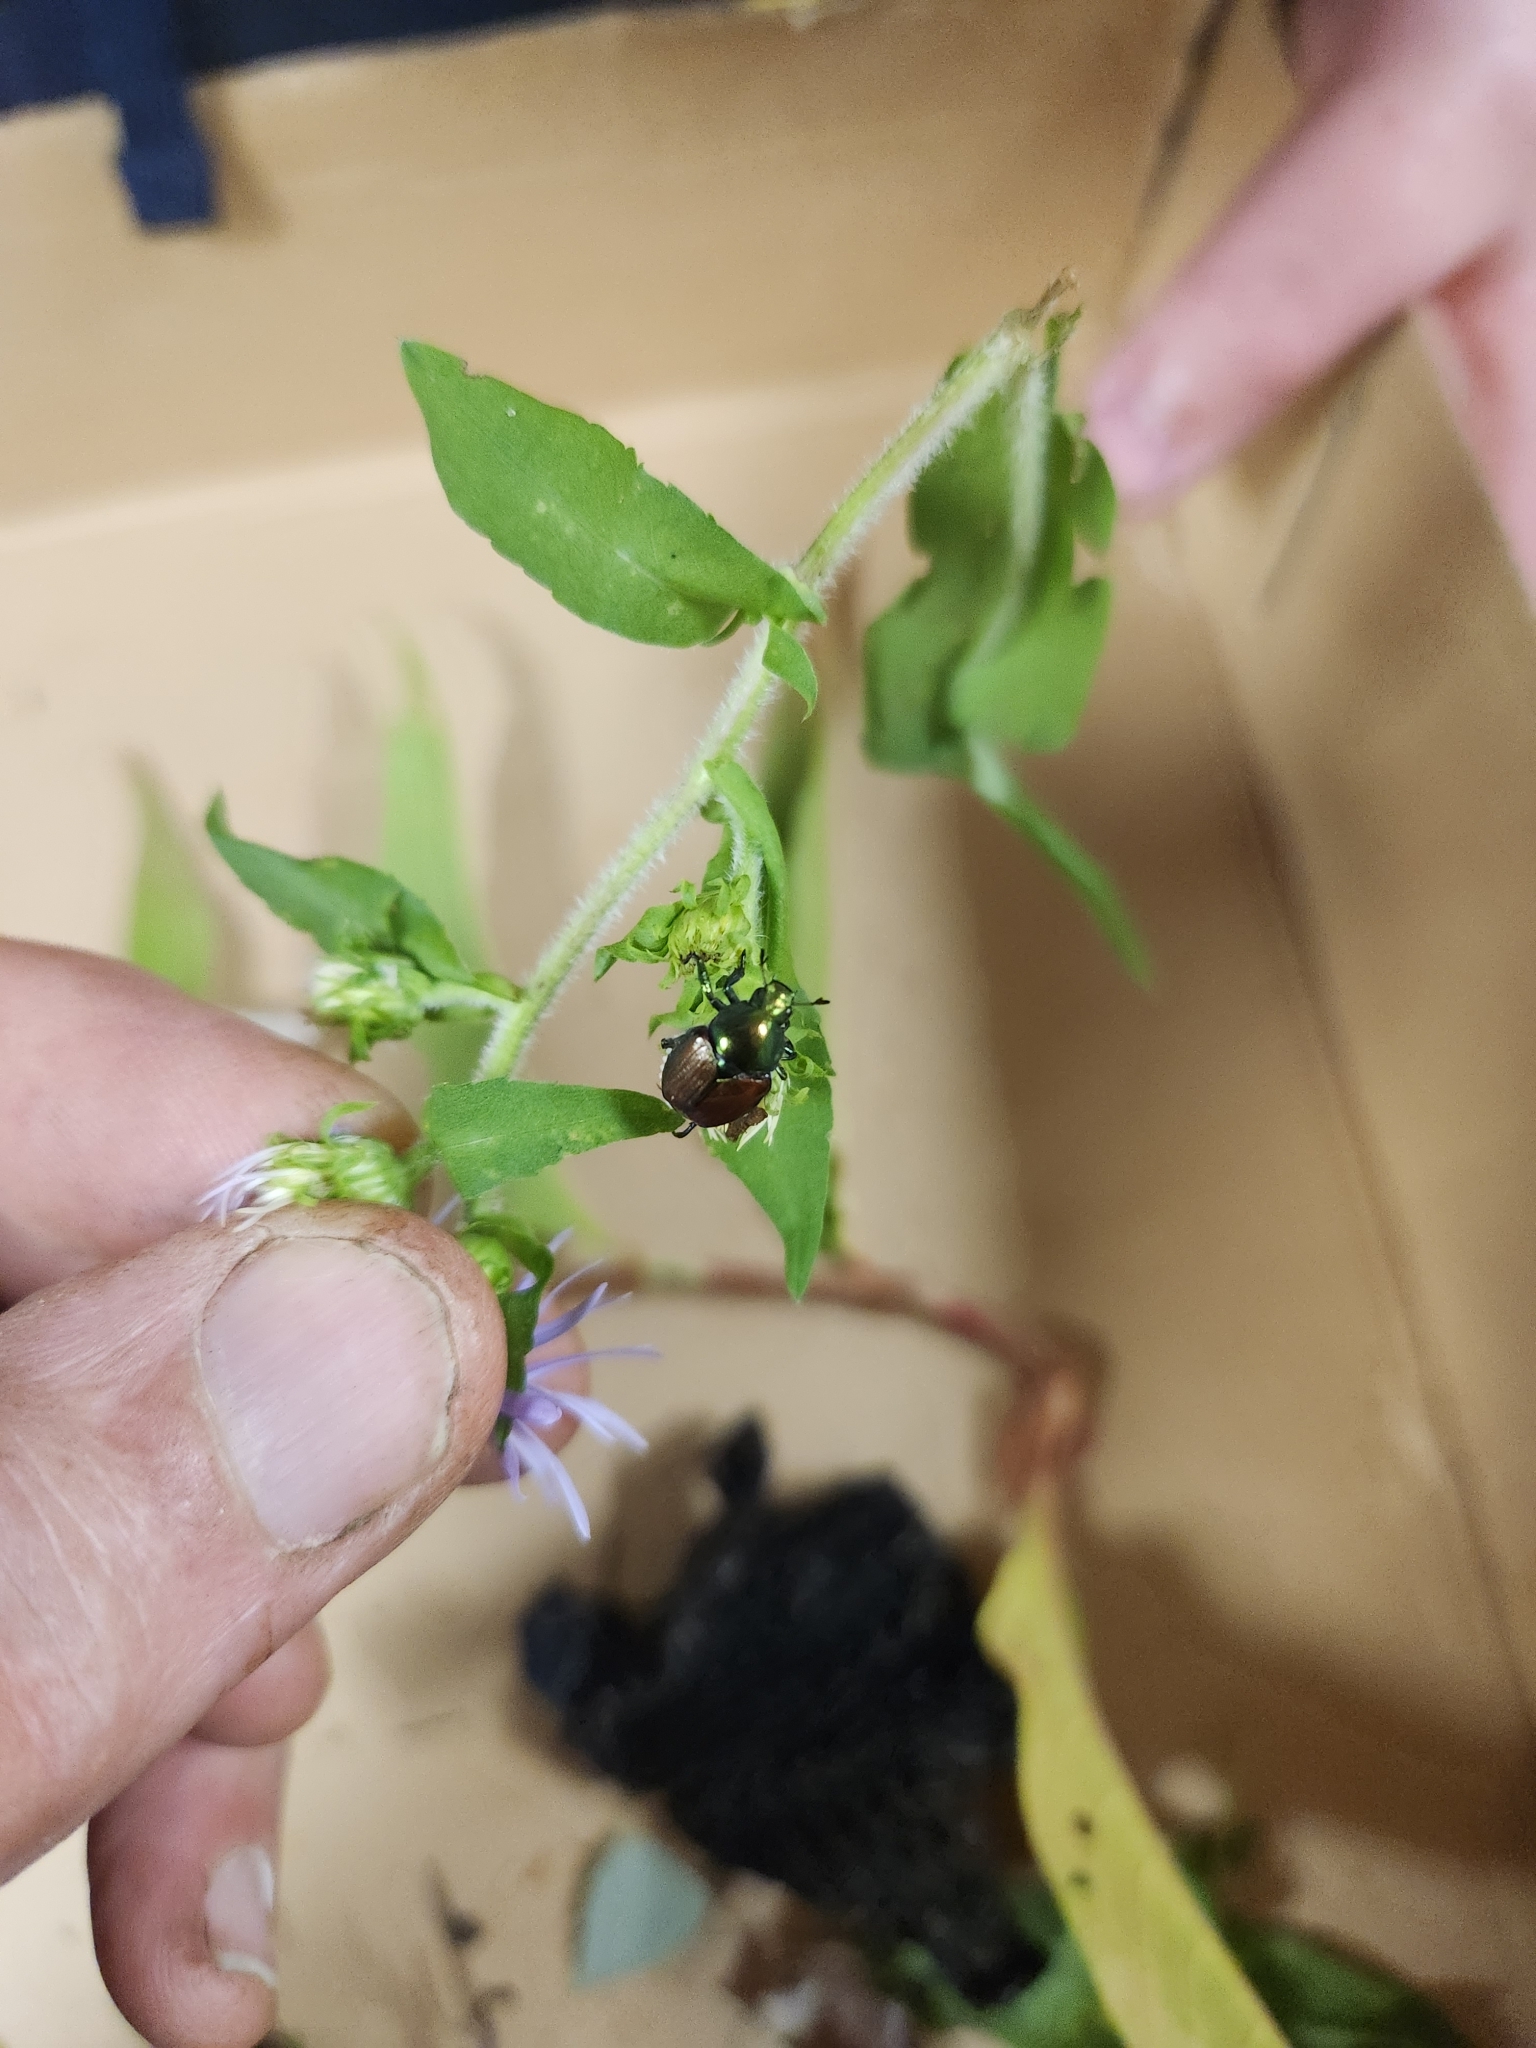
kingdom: Animalia
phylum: Arthropoda
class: Insecta
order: Coleoptera
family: Scarabaeidae
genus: Popillia
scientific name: Popillia japonica
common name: Japanese beetle
